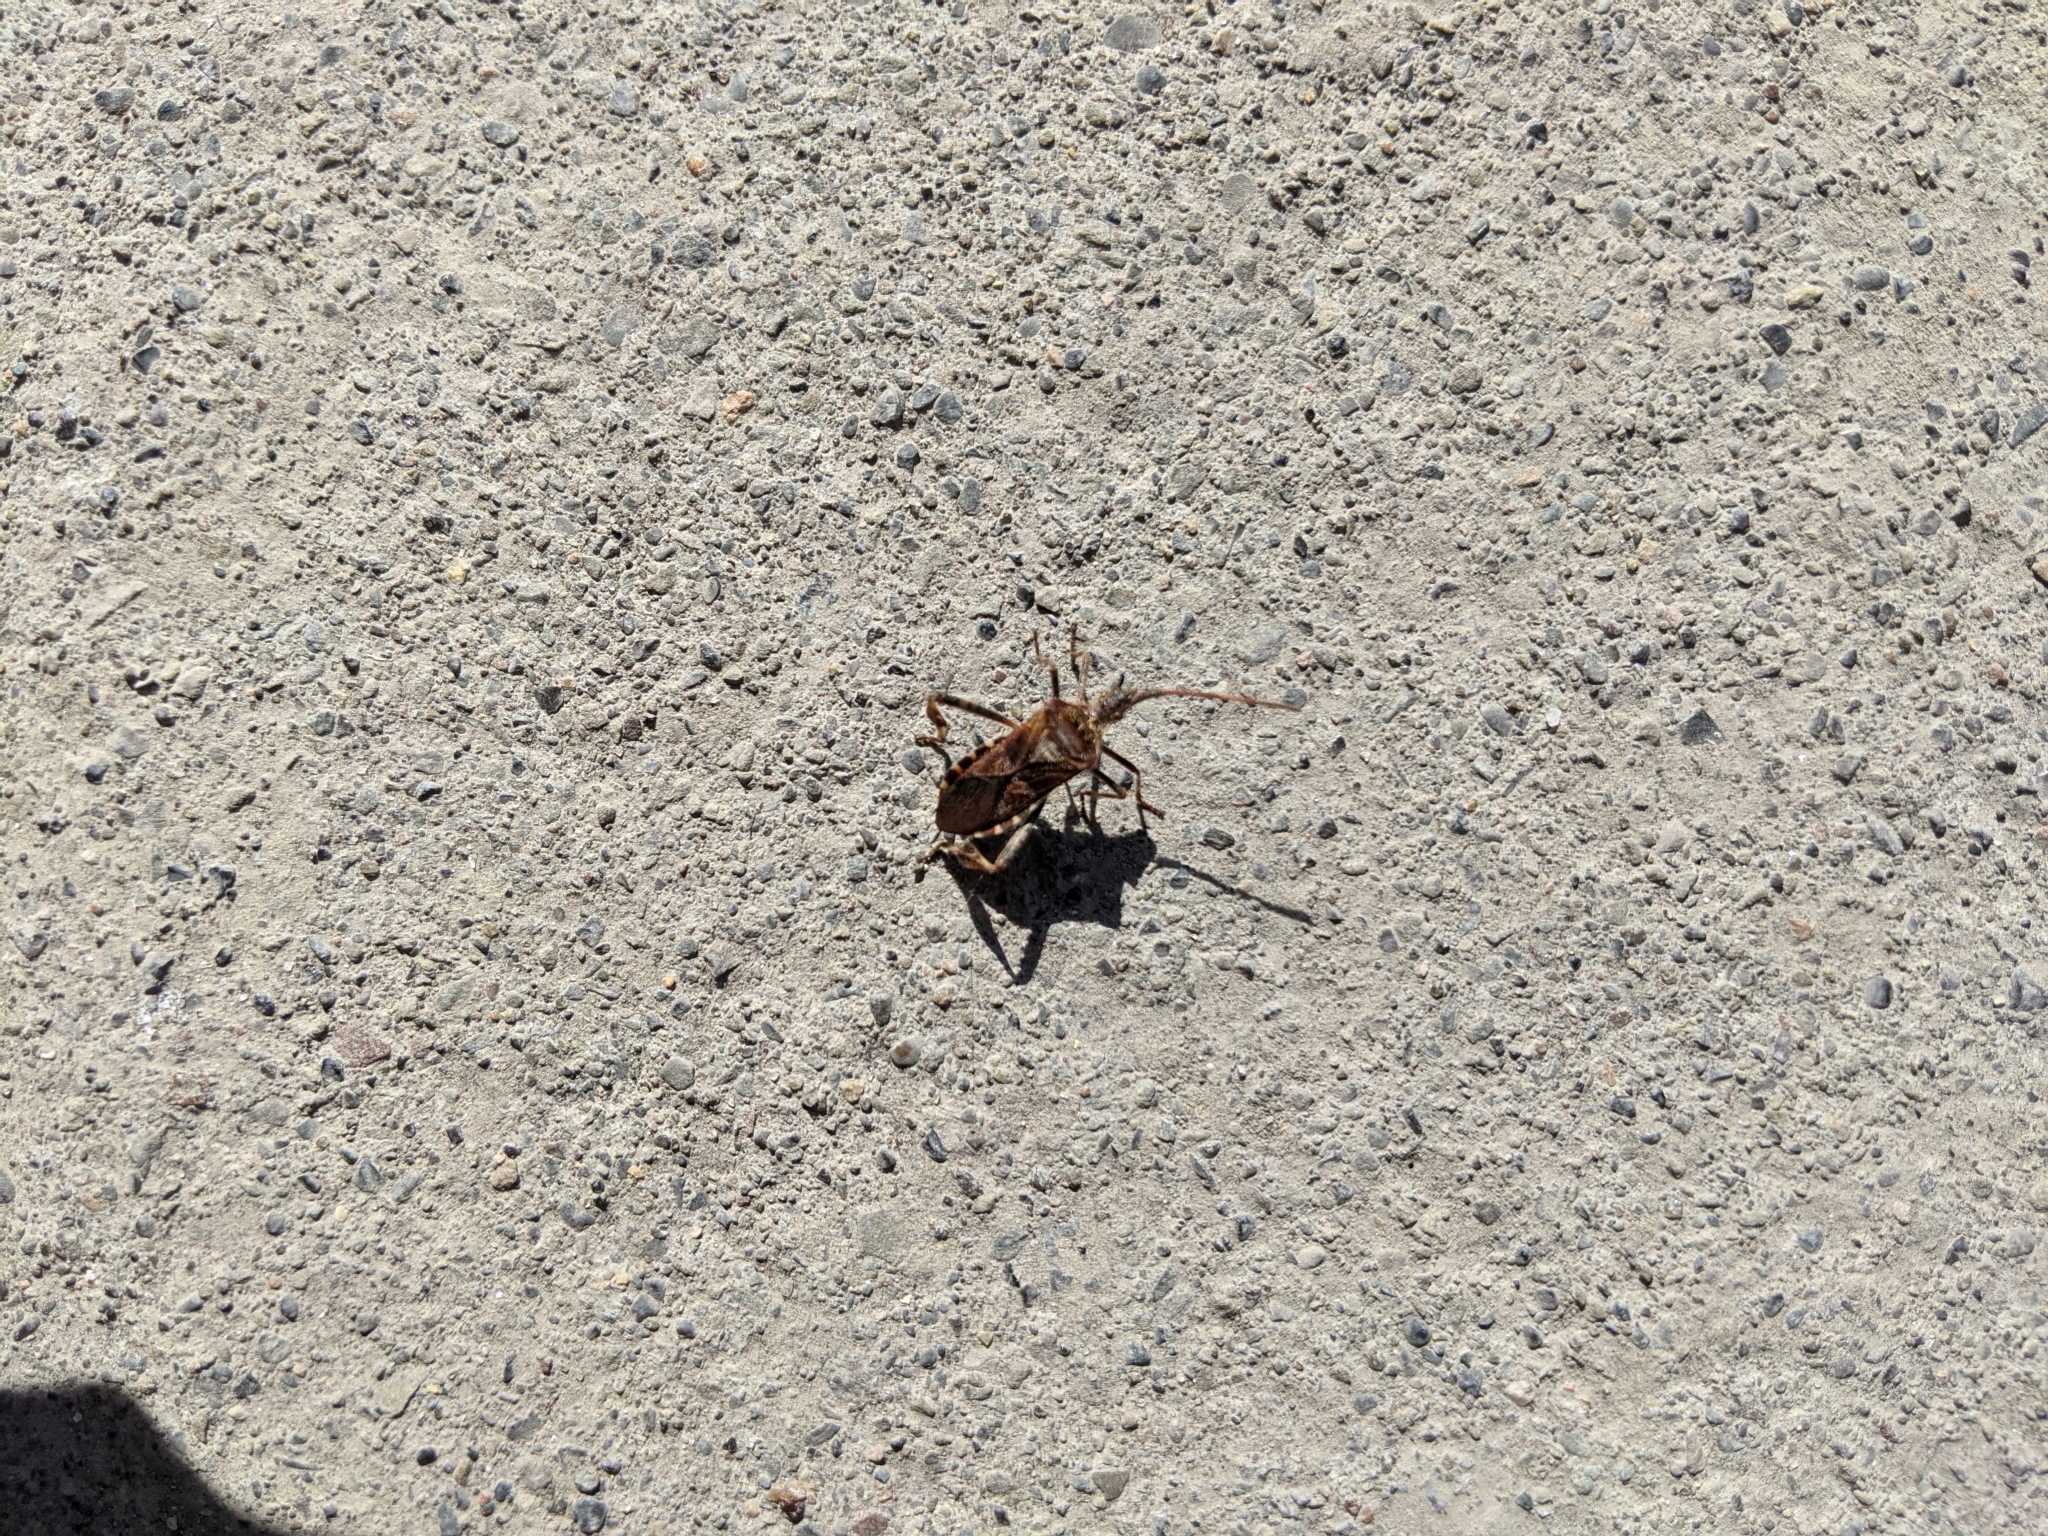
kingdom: Animalia
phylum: Arthropoda
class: Insecta
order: Hemiptera
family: Coreidae
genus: Leptoglossus
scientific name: Leptoglossus occidentalis
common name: Western conifer-seed bug
